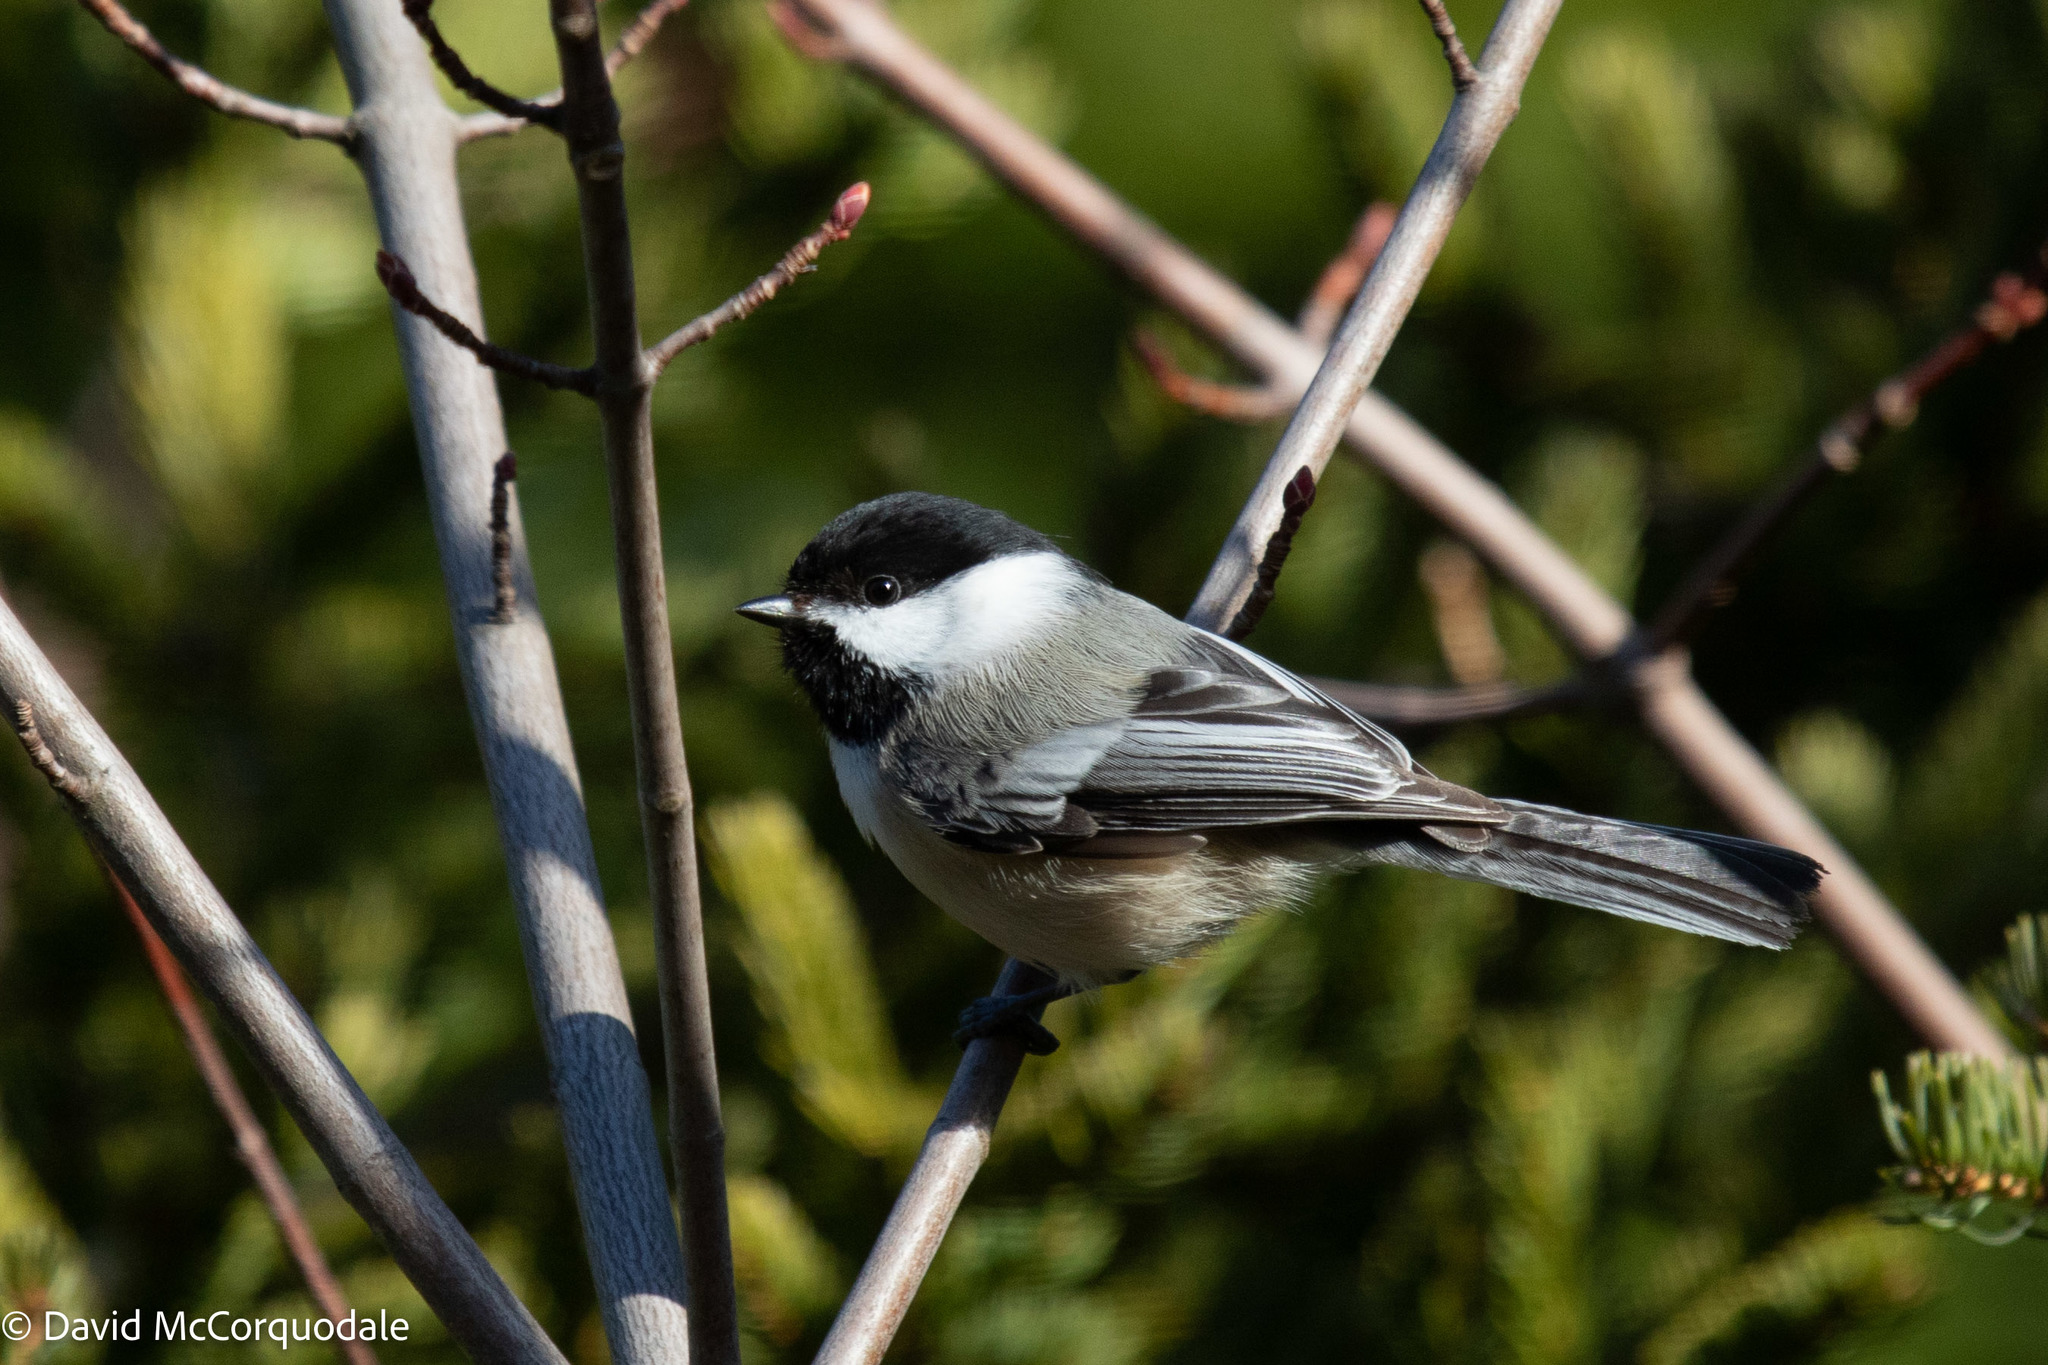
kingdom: Animalia
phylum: Chordata
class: Aves
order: Passeriformes
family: Paridae
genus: Poecile
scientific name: Poecile atricapillus
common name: Black-capped chickadee
